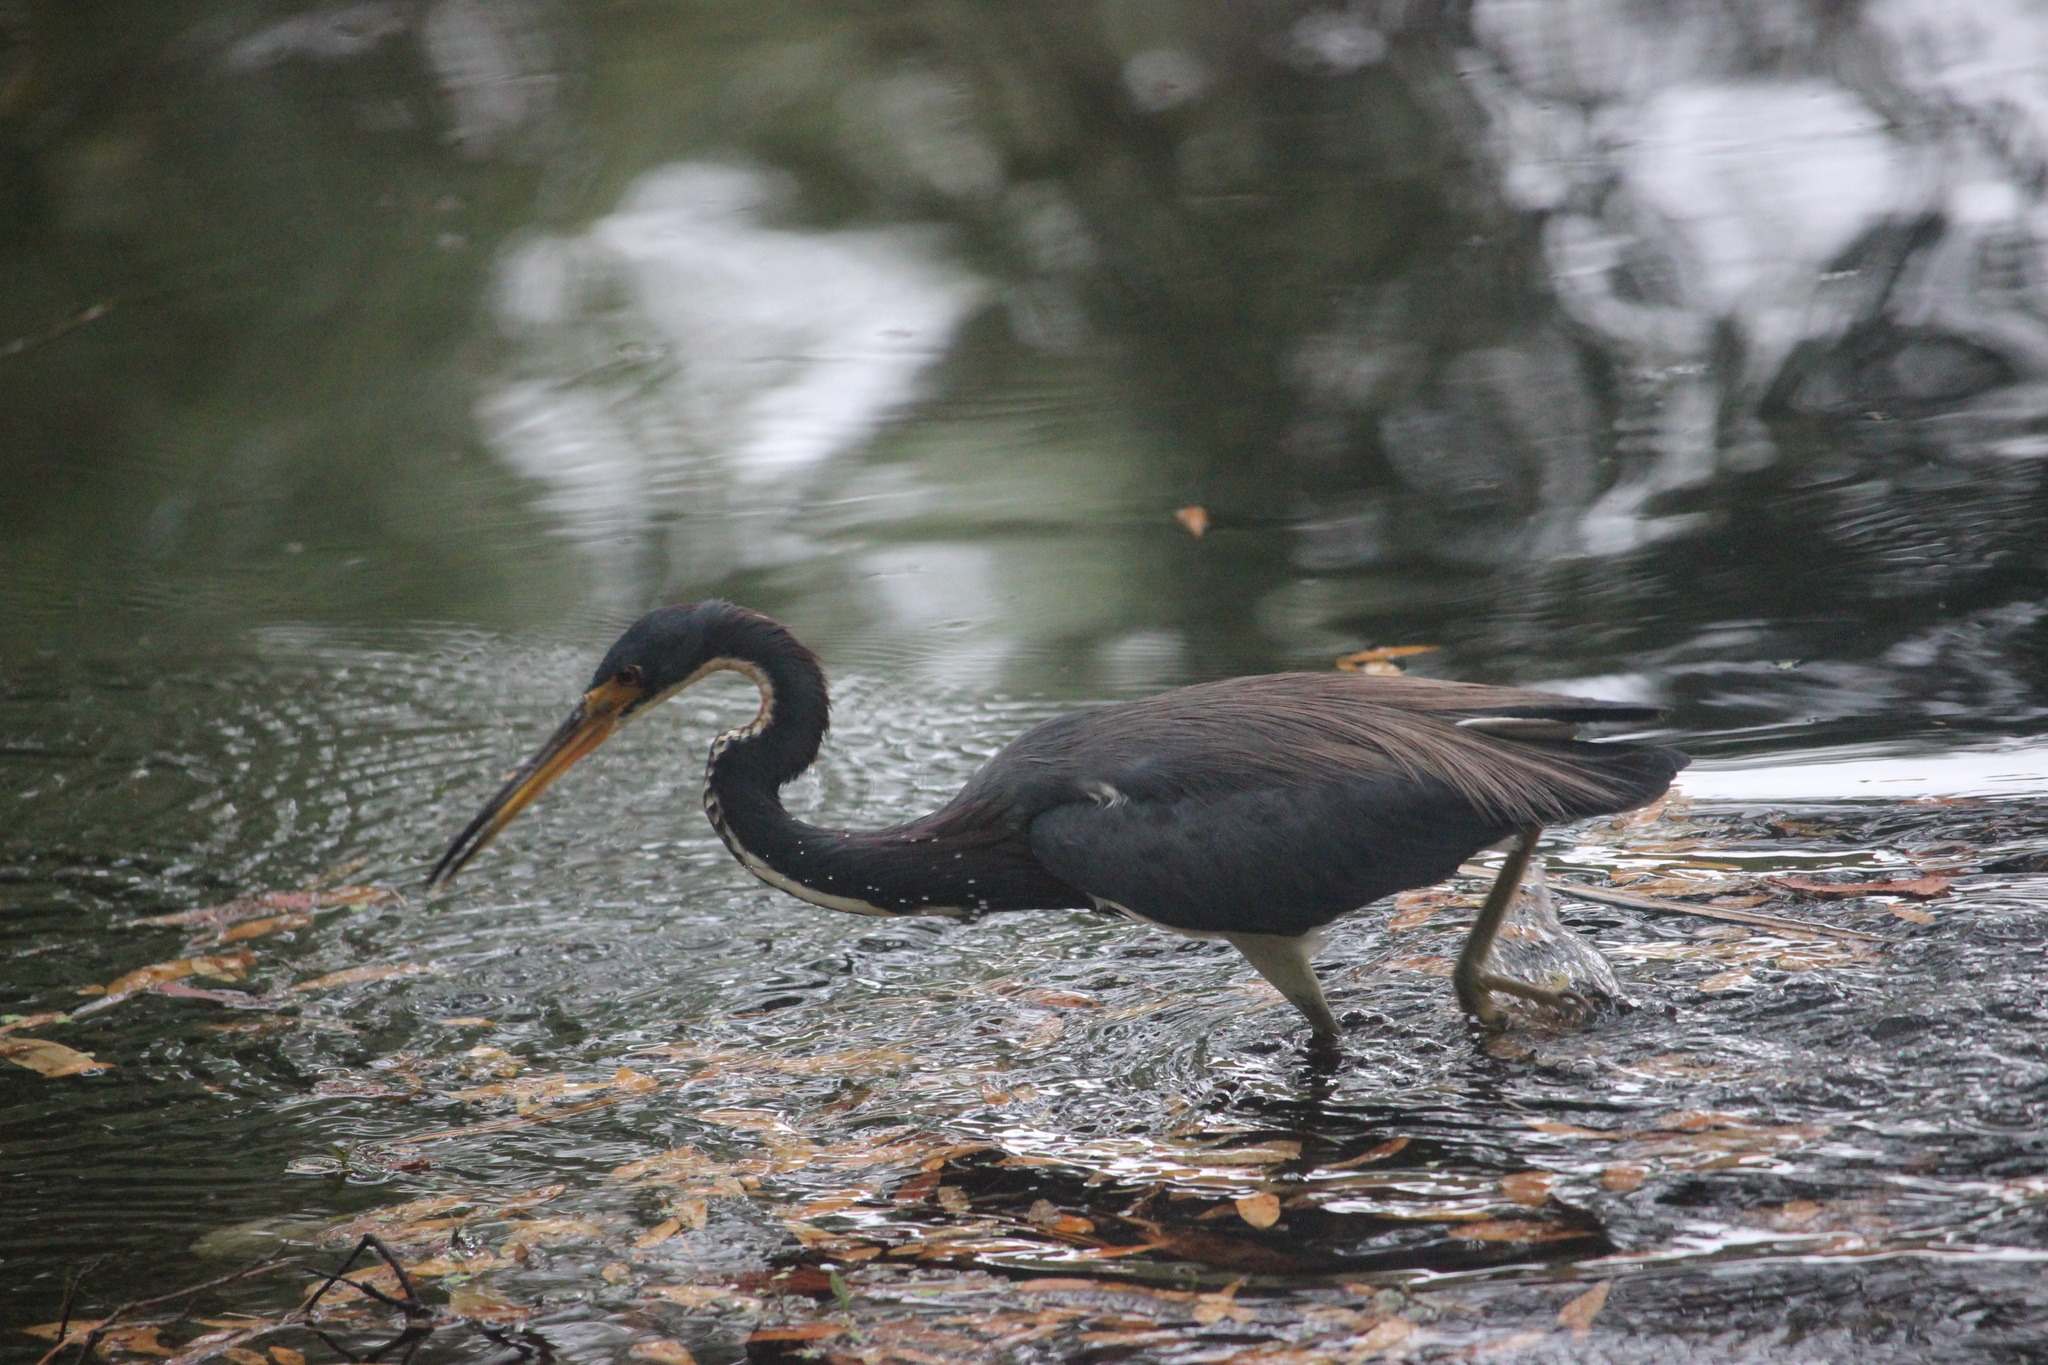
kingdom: Animalia
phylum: Chordata
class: Aves
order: Pelecaniformes
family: Ardeidae
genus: Egretta
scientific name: Egretta tricolor
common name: Tricolored heron
